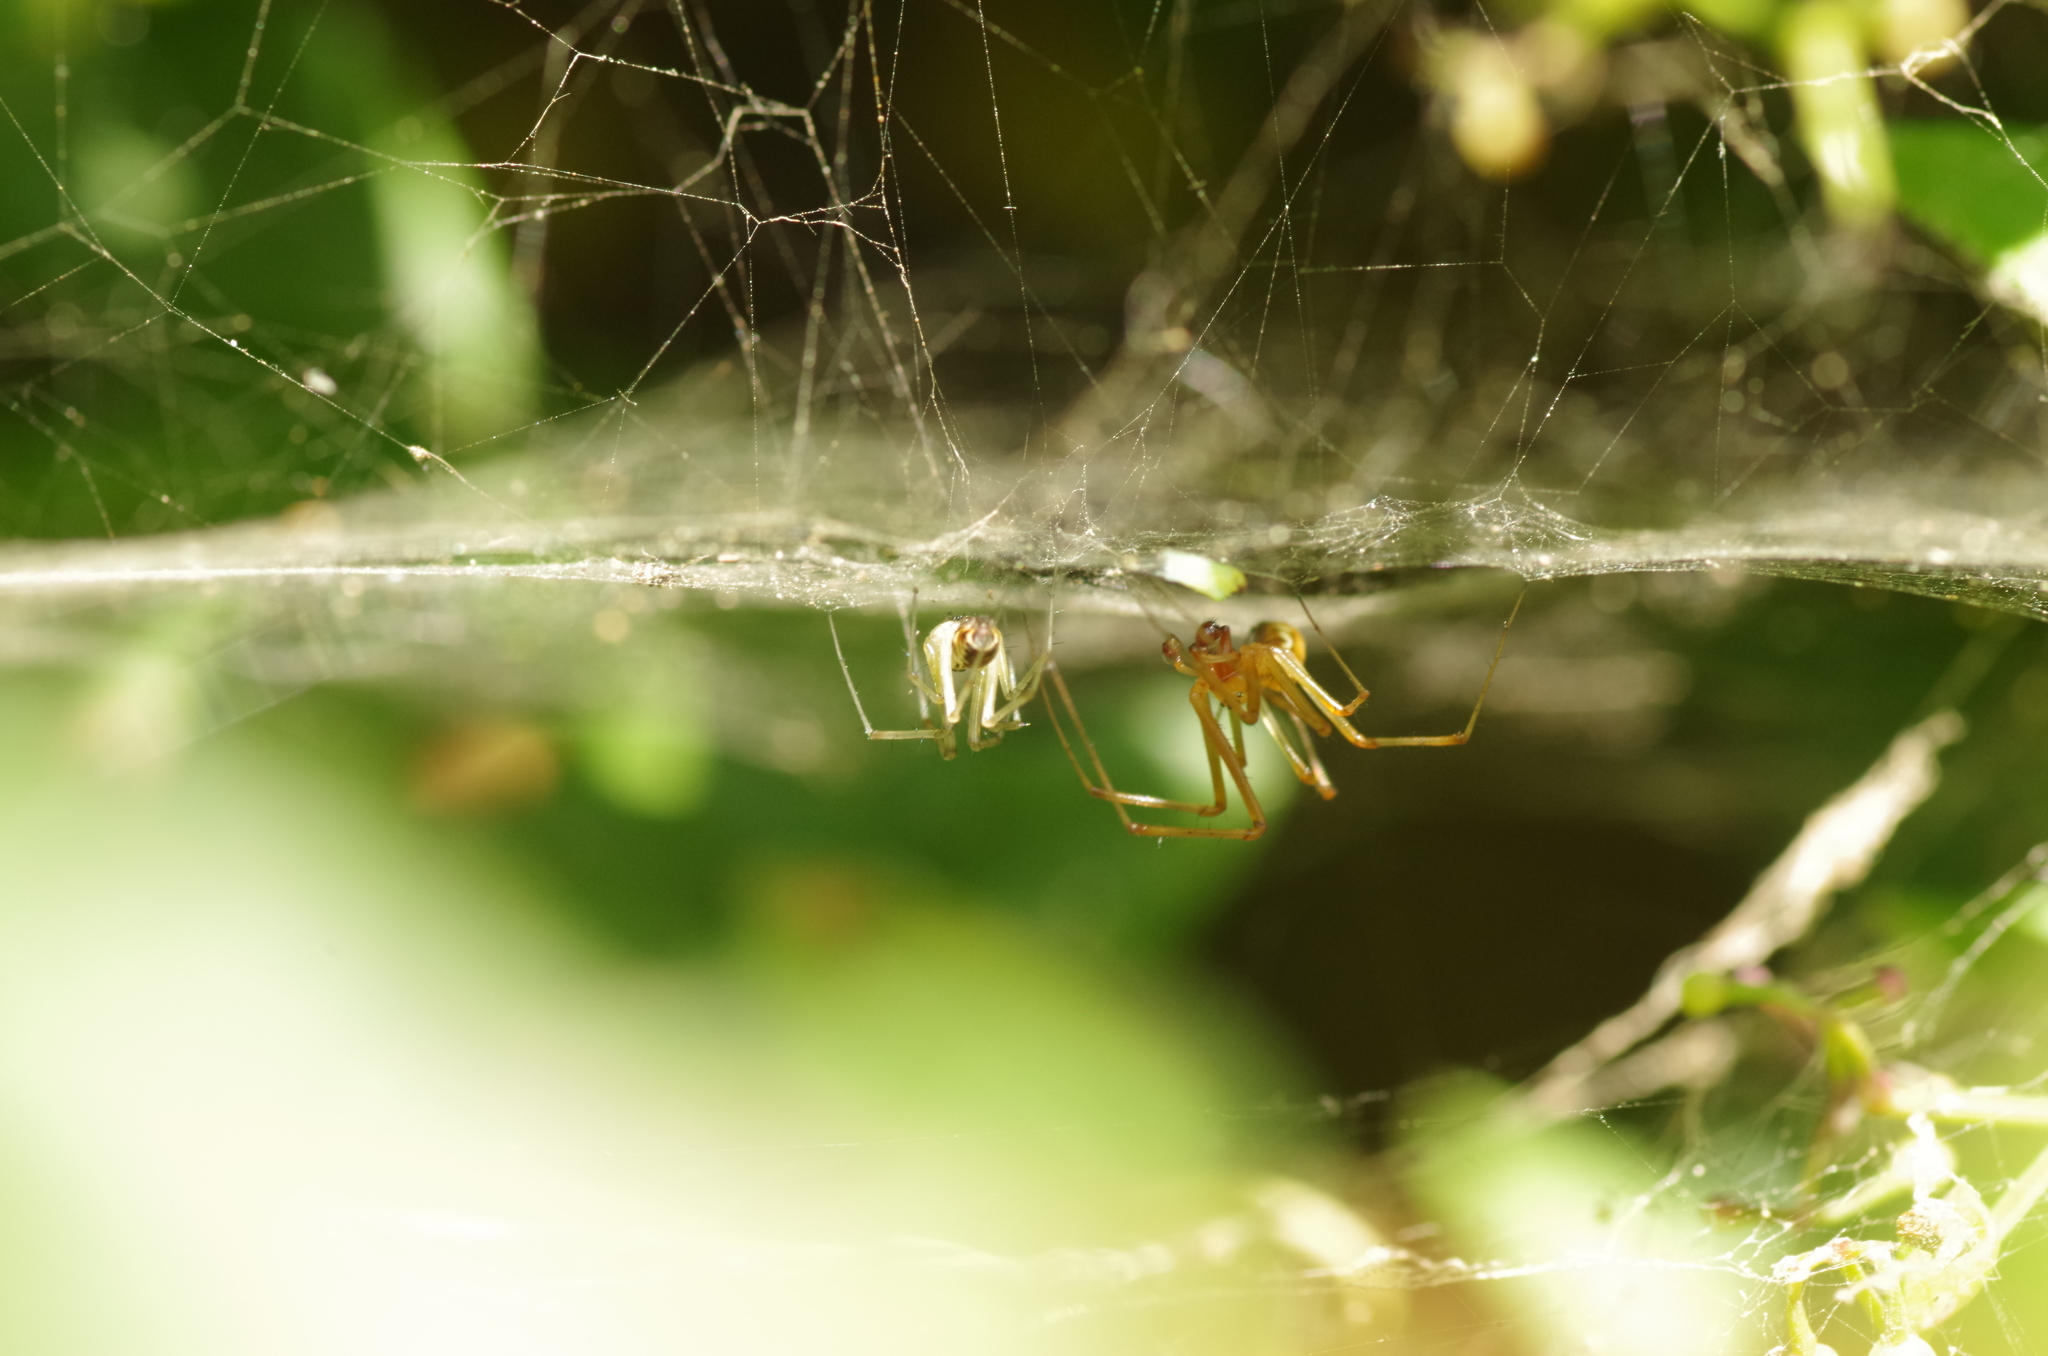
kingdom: Animalia
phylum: Arthropoda
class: Arachnida
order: Araneae
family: Linyphiidae
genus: Linyphia
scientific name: Linyphia triangularis
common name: Money spider
